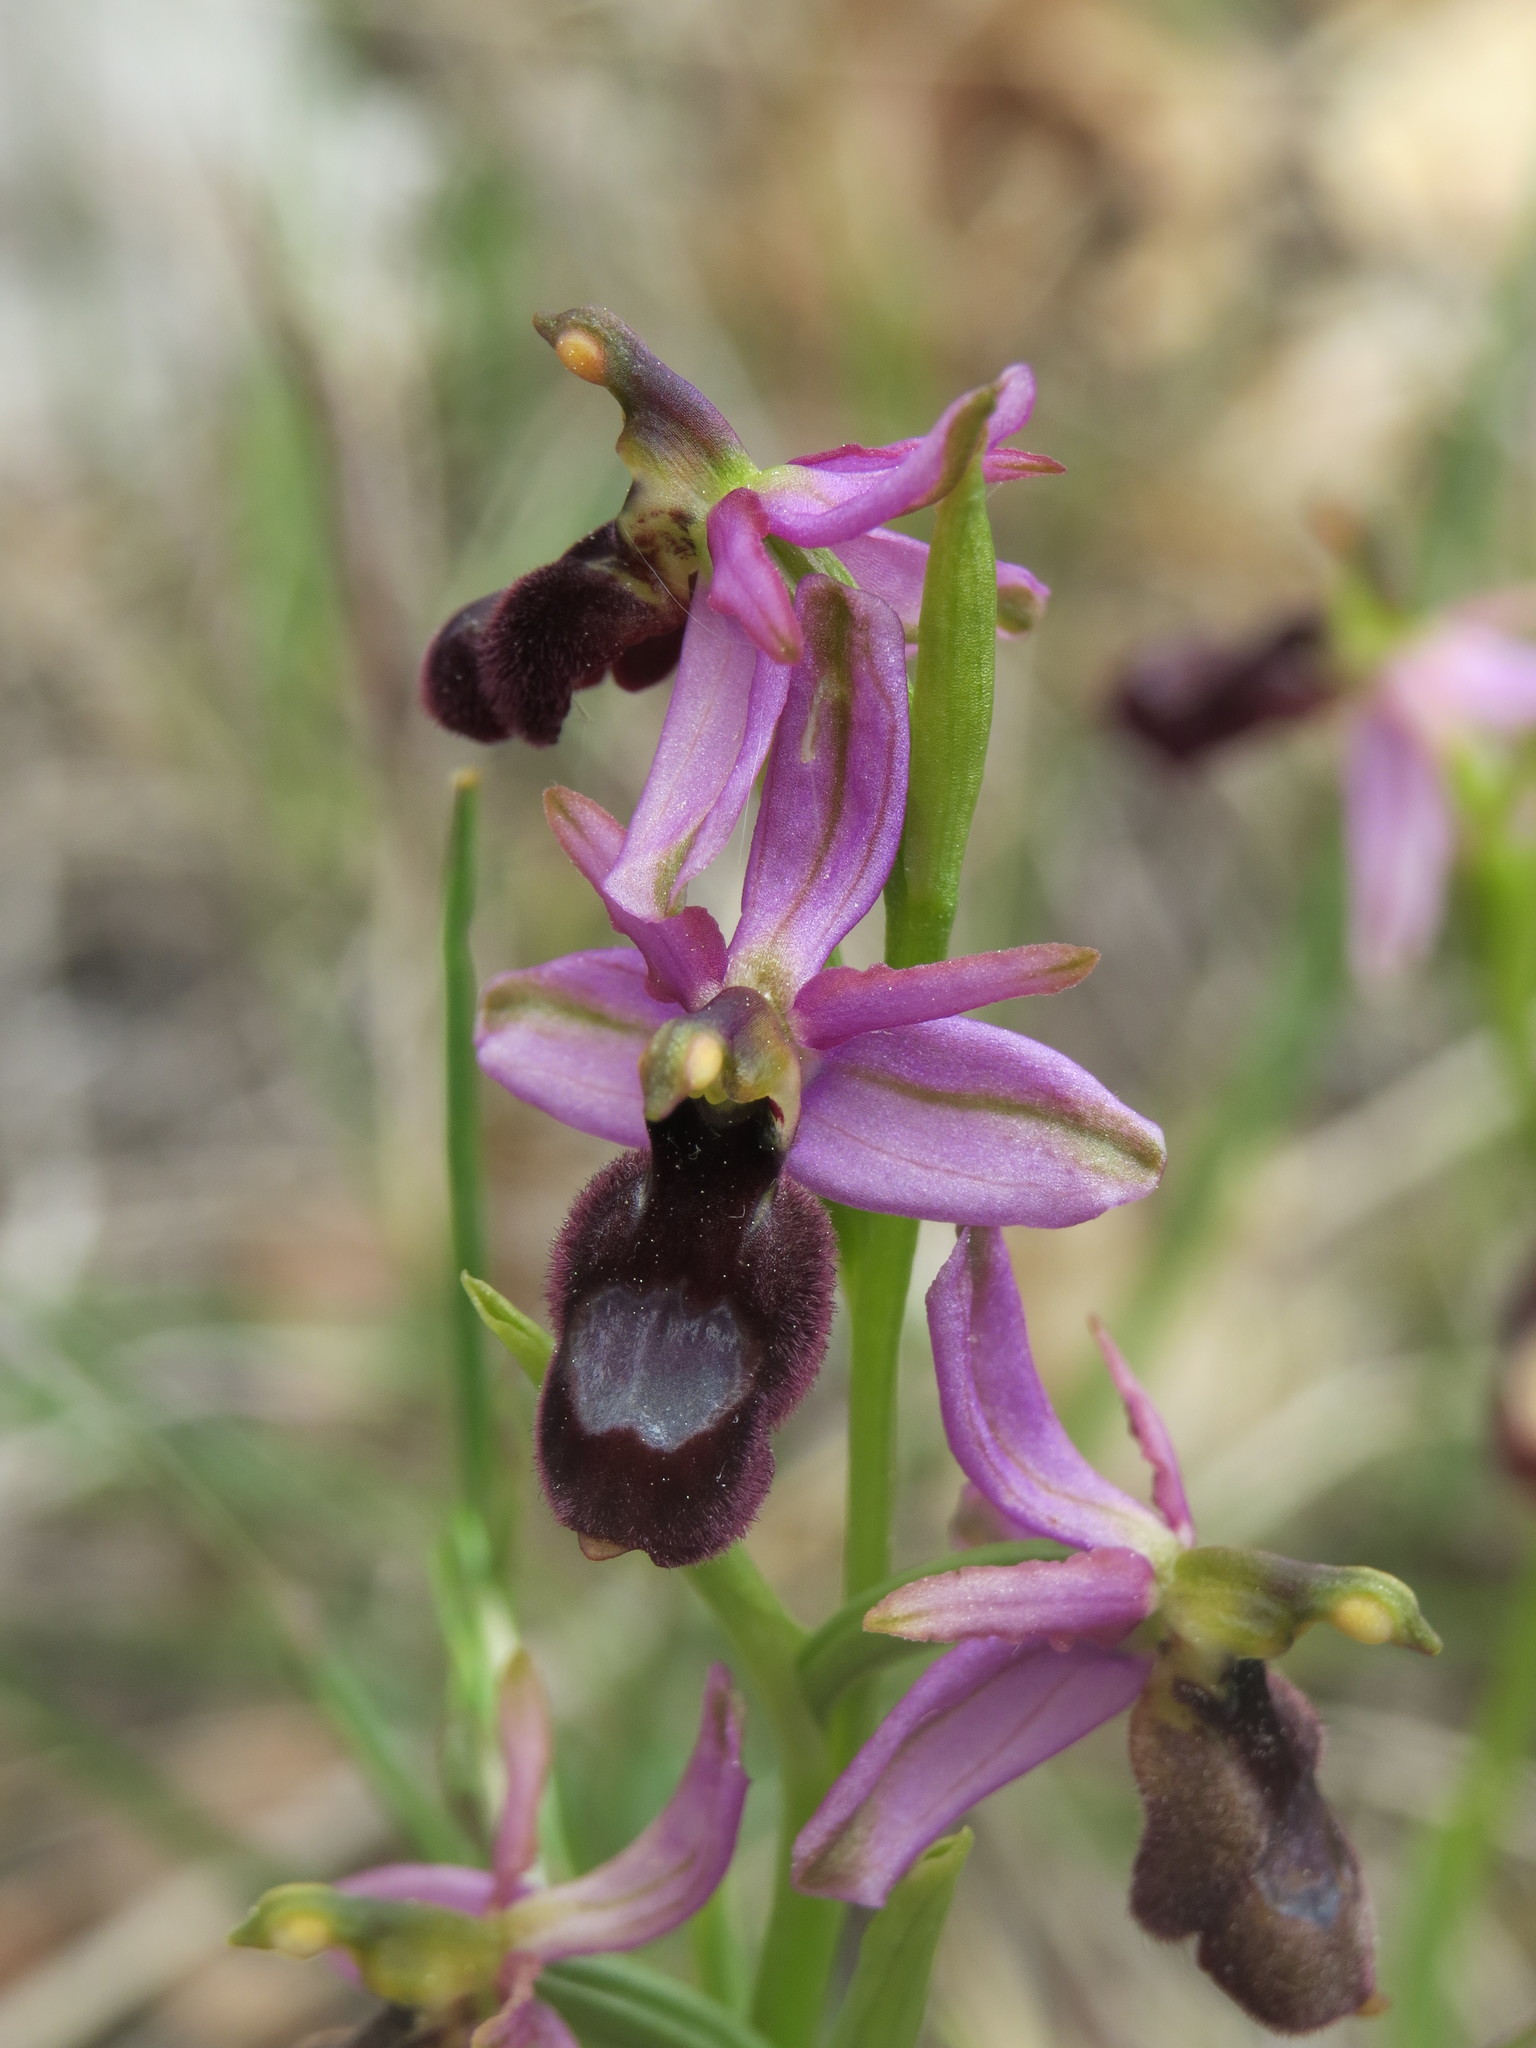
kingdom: Plantae
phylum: Tracheophyta
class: Liliopsida
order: Asparagales
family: Orchidaceae
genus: Ophrys
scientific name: Ophrys flavicans
